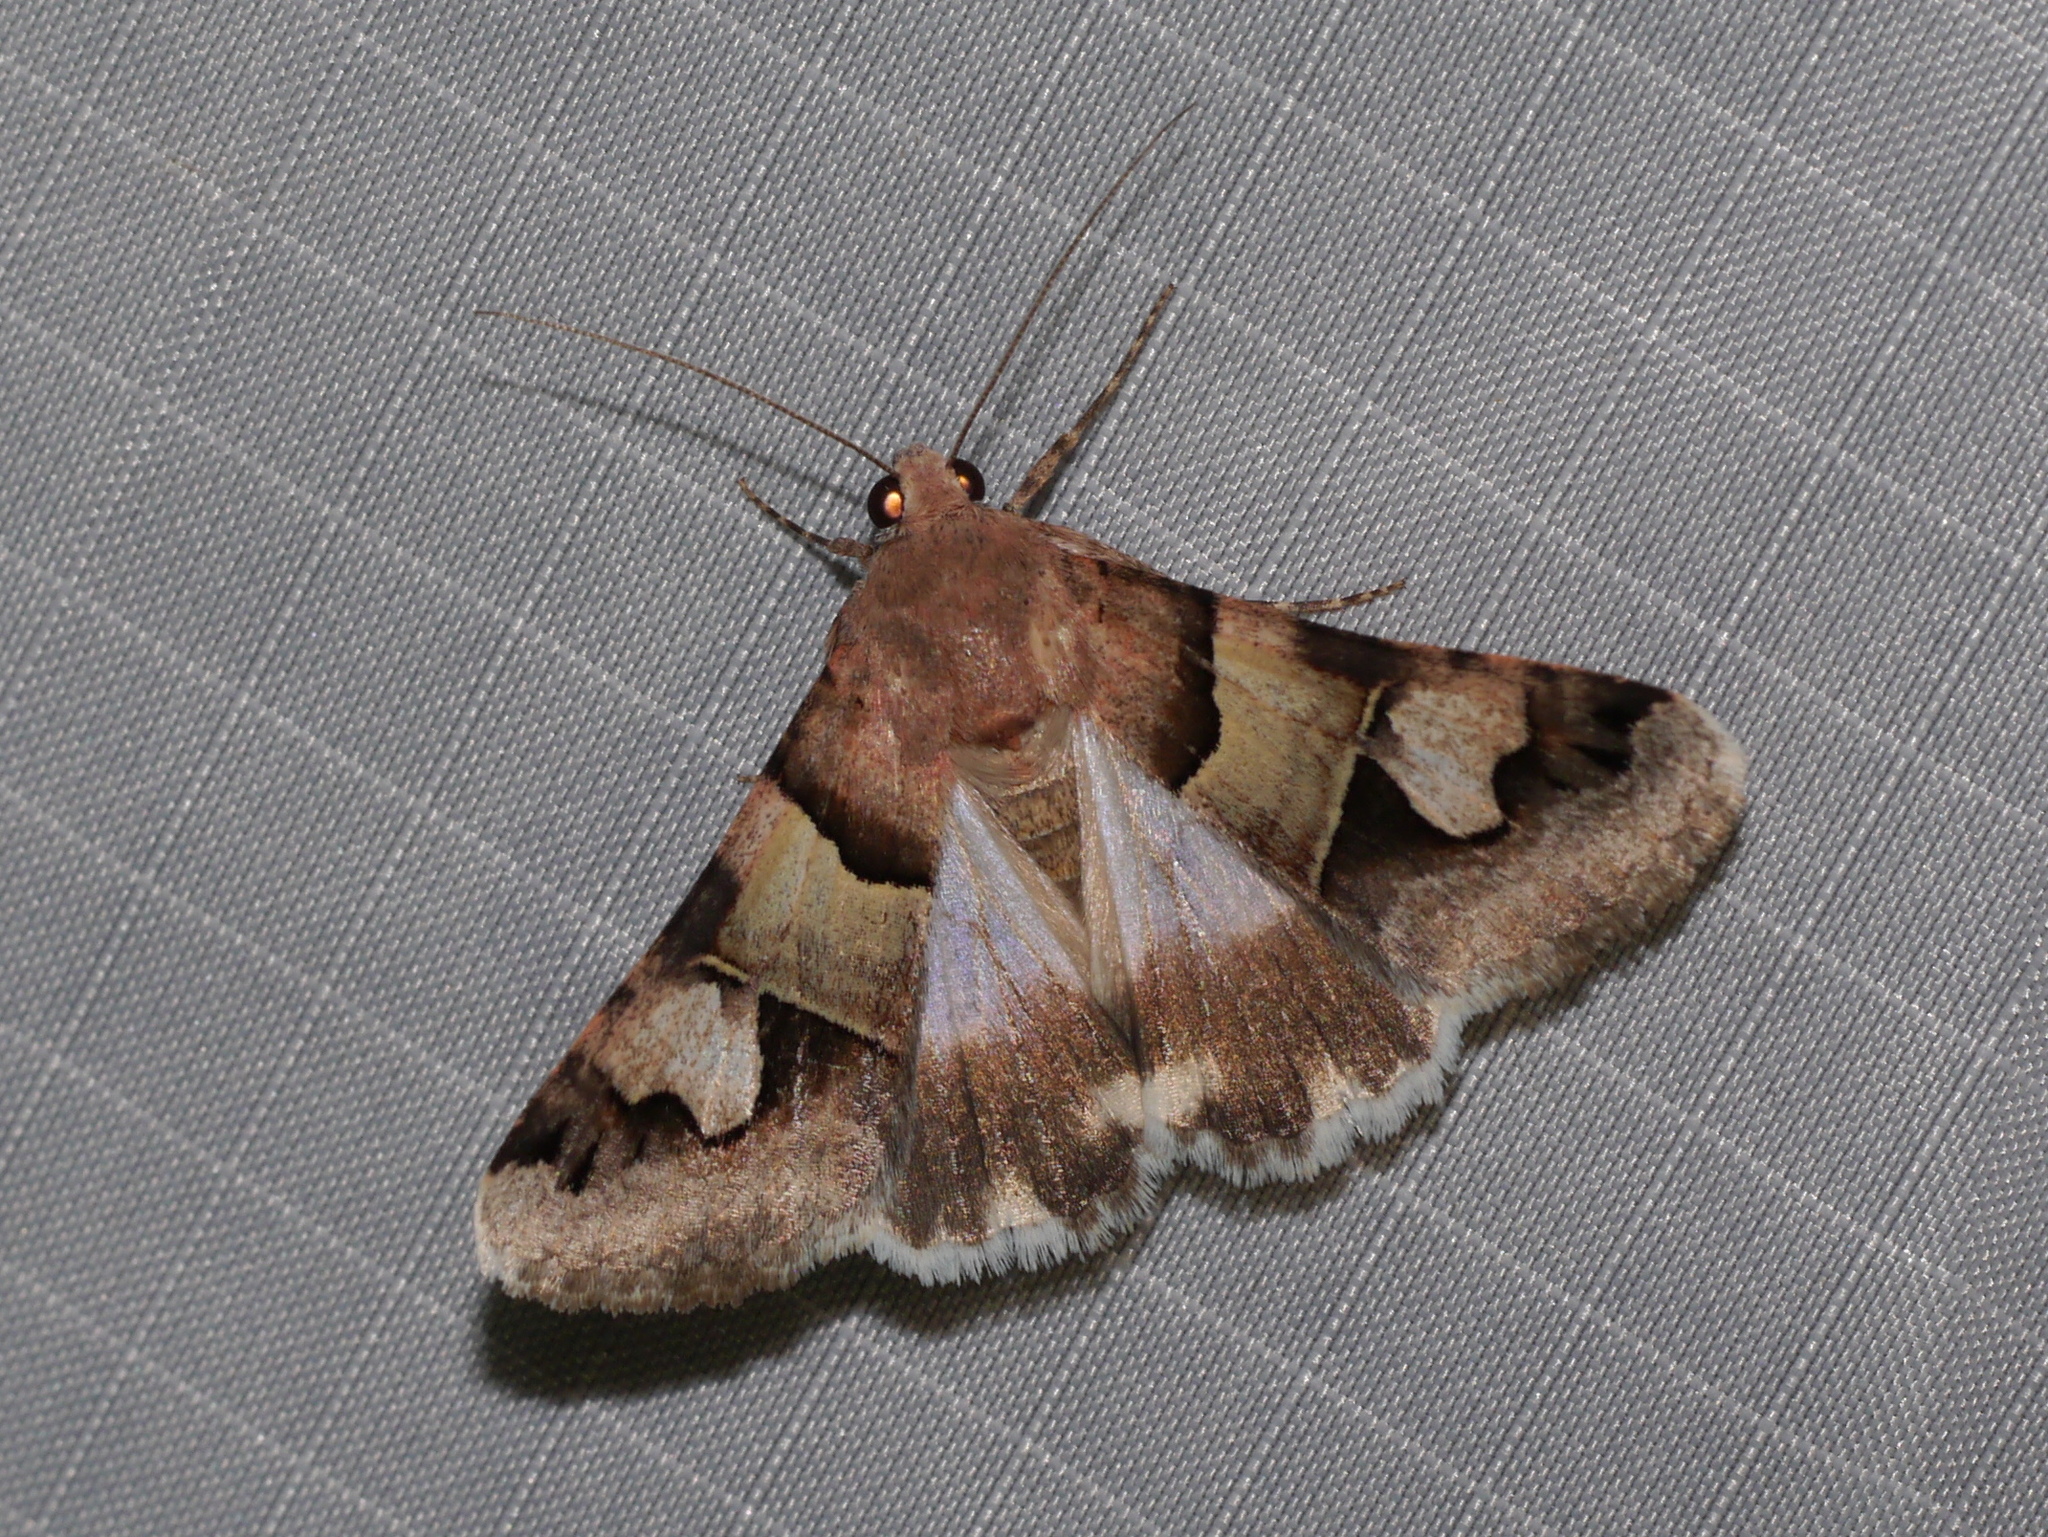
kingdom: Animalia
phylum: Arthropoda
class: Insecta
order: Lepidoptera
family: Erebidae
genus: Drasteria
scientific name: Drasteria pallescens
